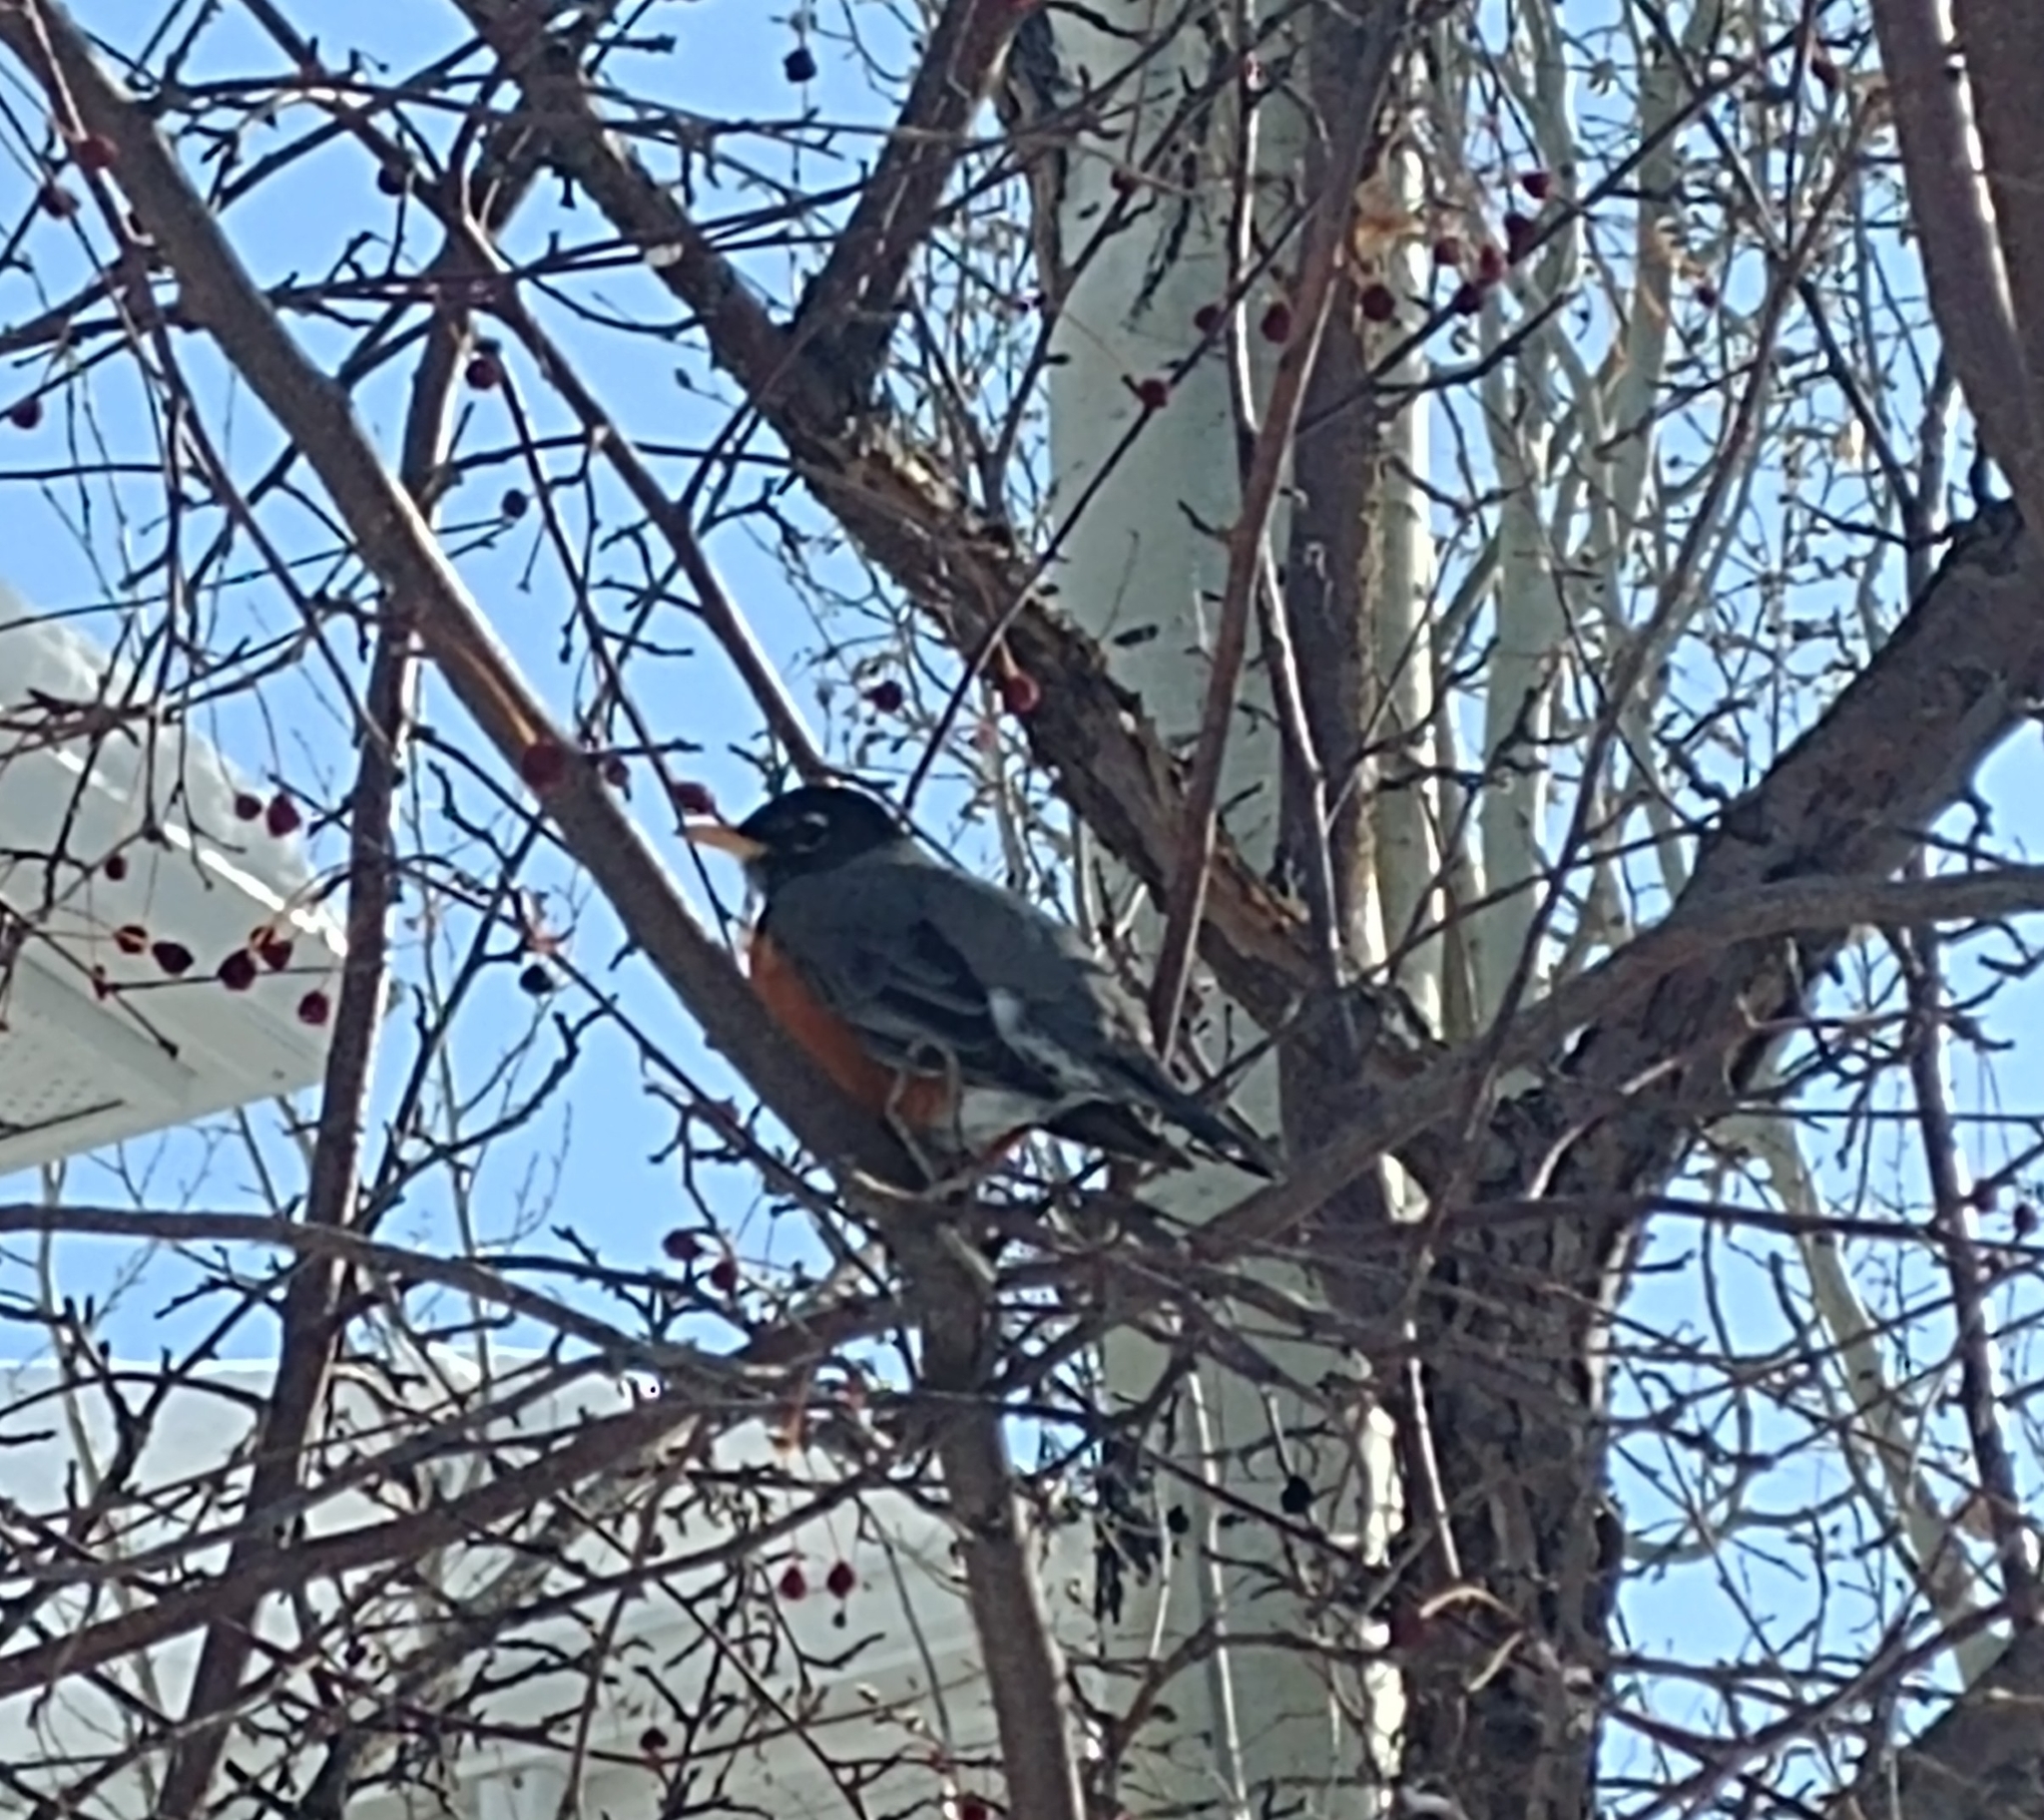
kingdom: Animalia
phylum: Chordata
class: Aves
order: Passeriformes
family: Turdidae
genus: Turdus
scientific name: Turdus migratorius
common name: American robin
